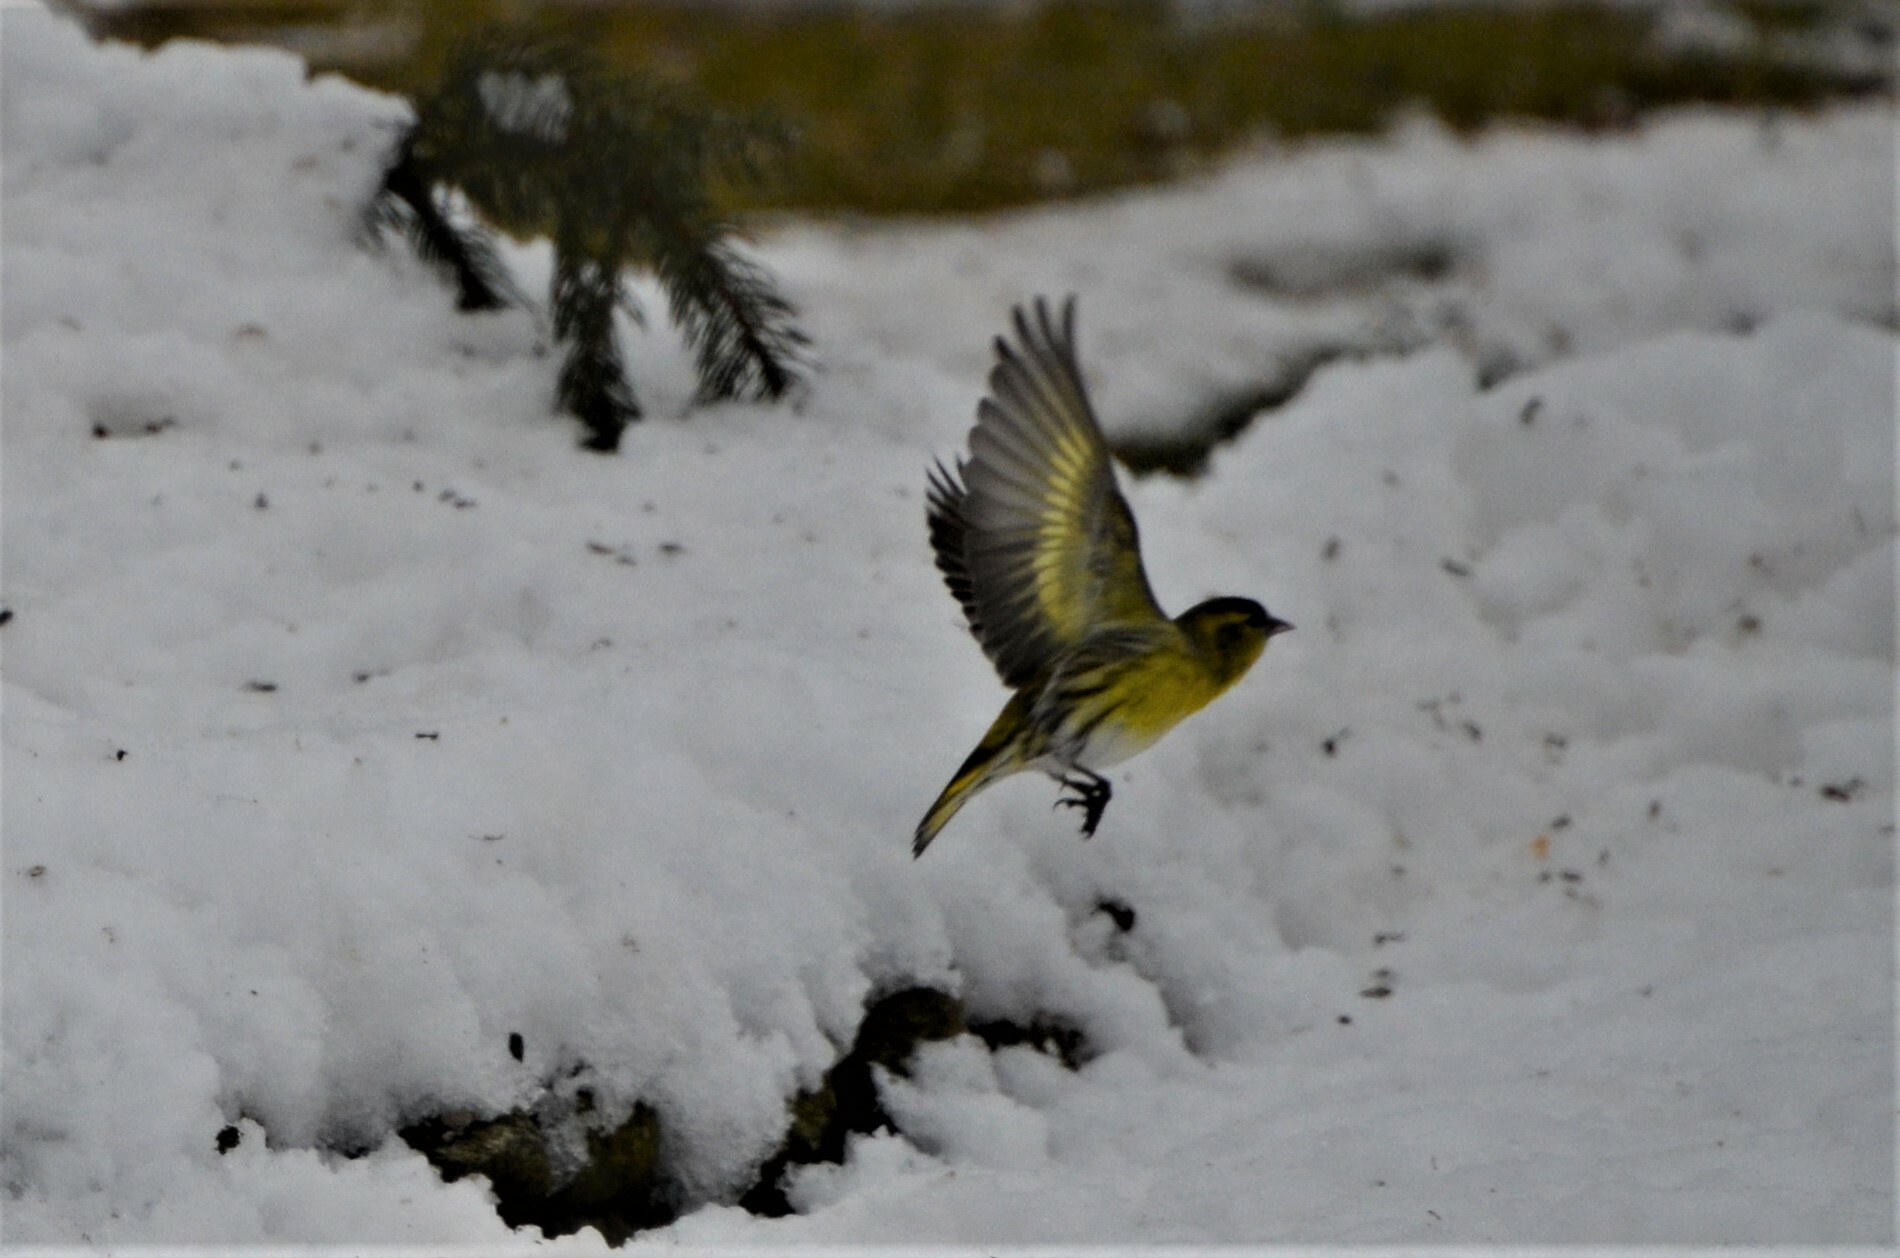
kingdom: Animalia
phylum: Chordata
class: Aves
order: Passeriformes
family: Fringillidae
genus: Spinus
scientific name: Spinus spinus
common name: Eurasian siskin
